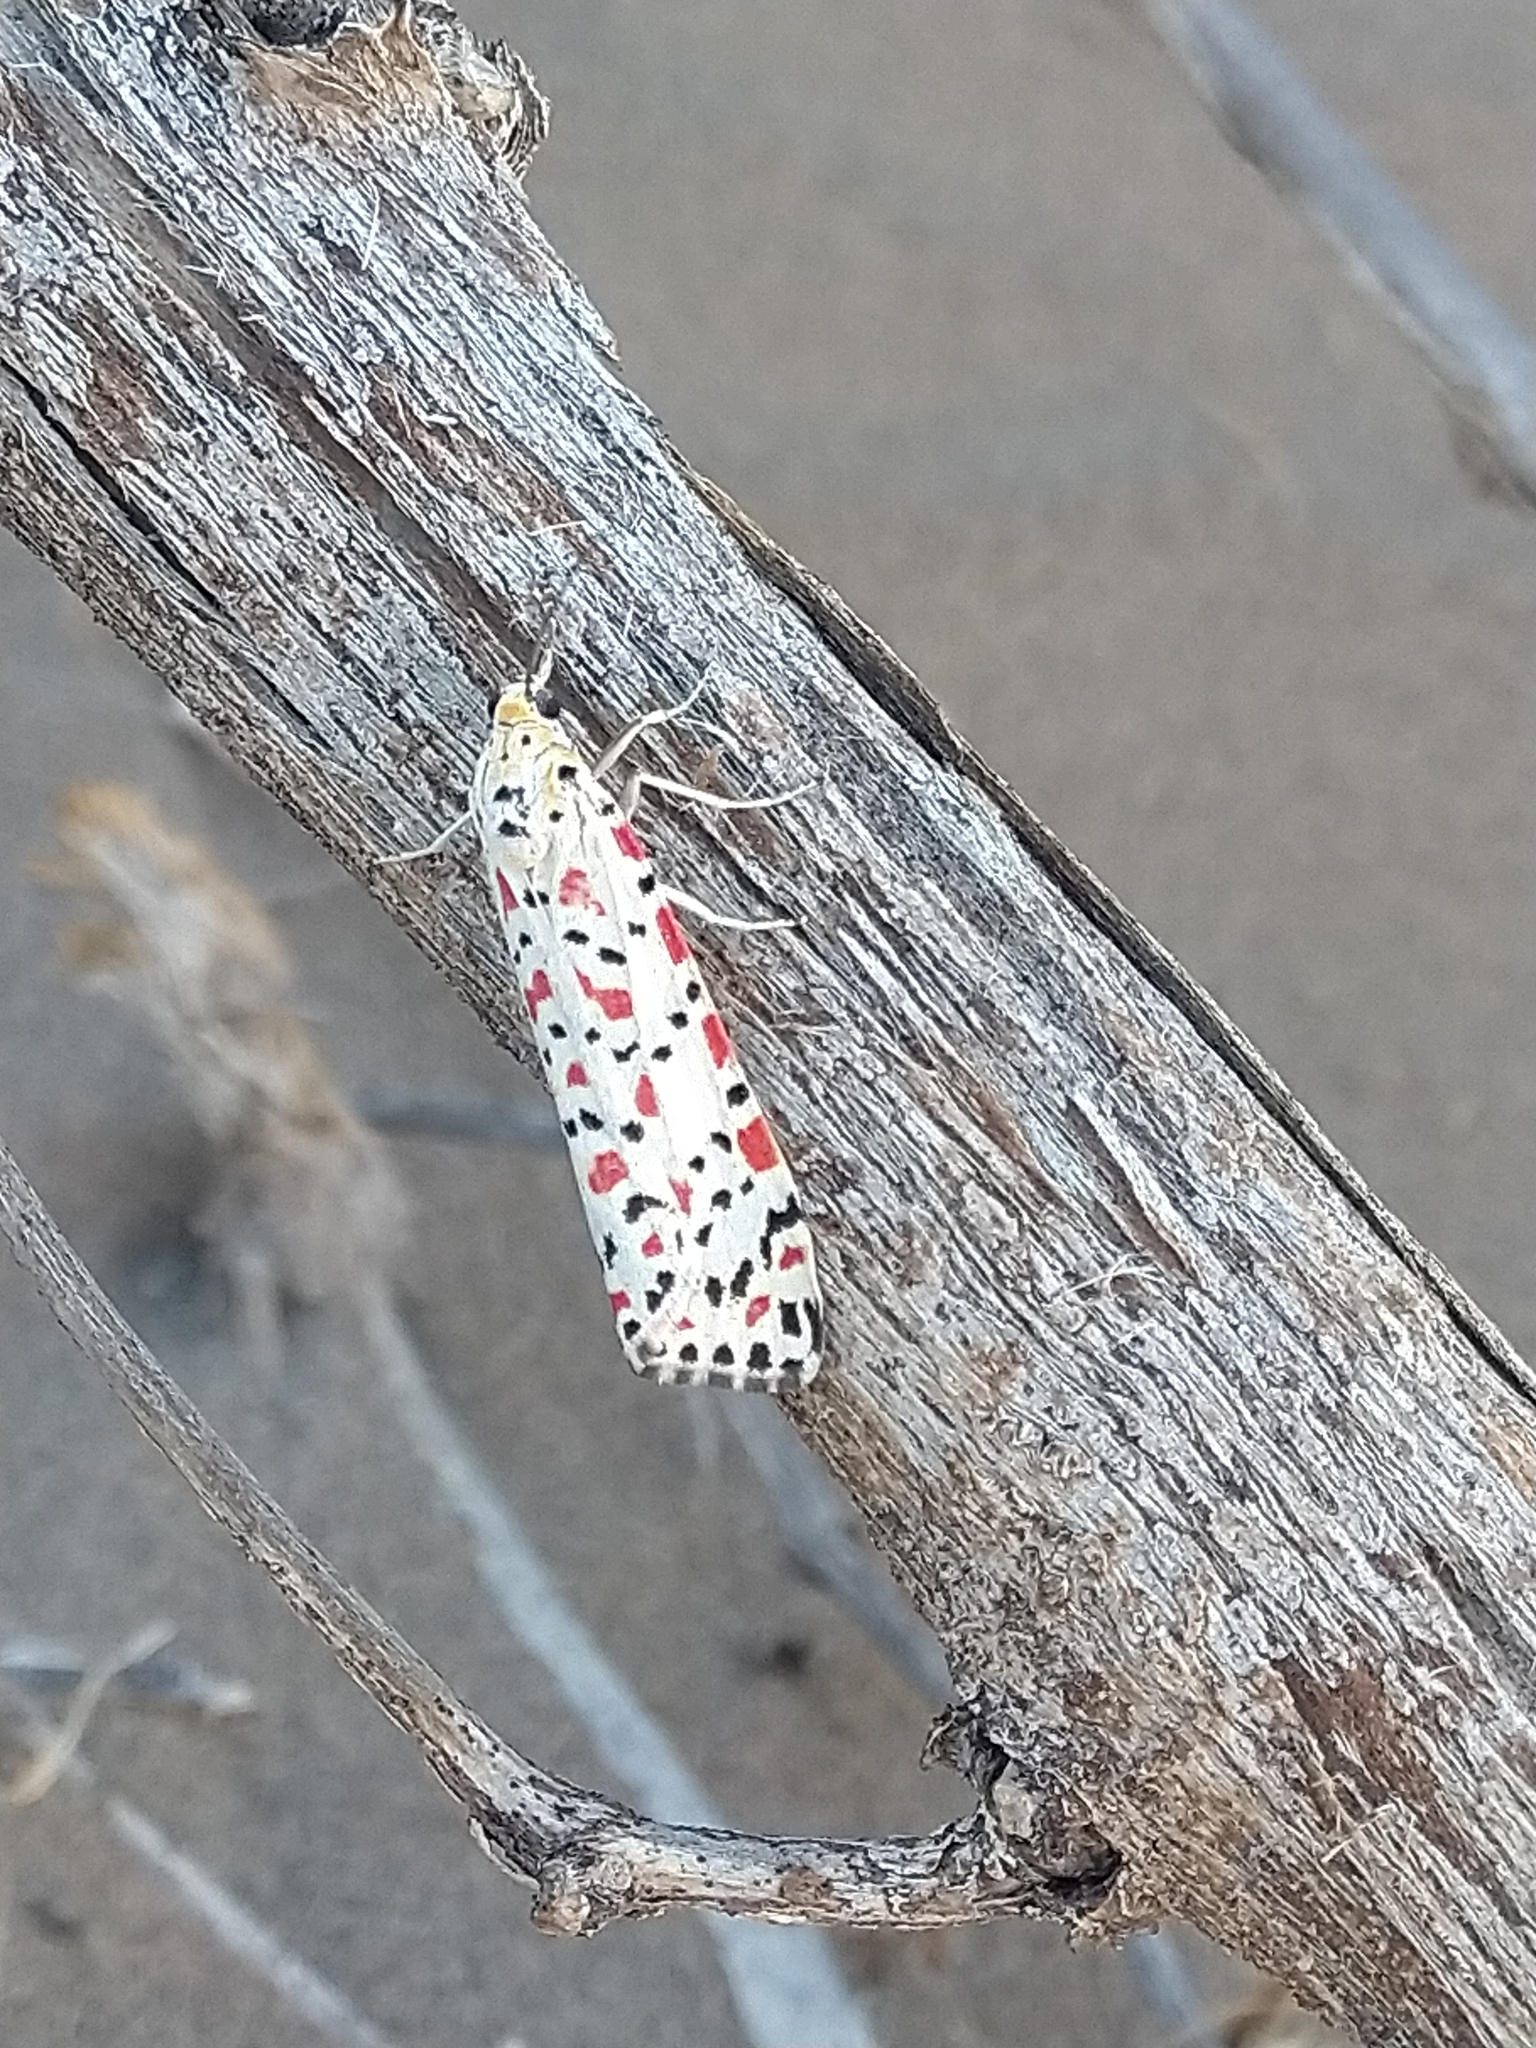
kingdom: Animalia
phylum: Arthropoda
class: Insecta
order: Lepidoptera
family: Erebidae
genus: Utetheisa
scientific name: Utetheisa pulchella
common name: Crimson speckled
